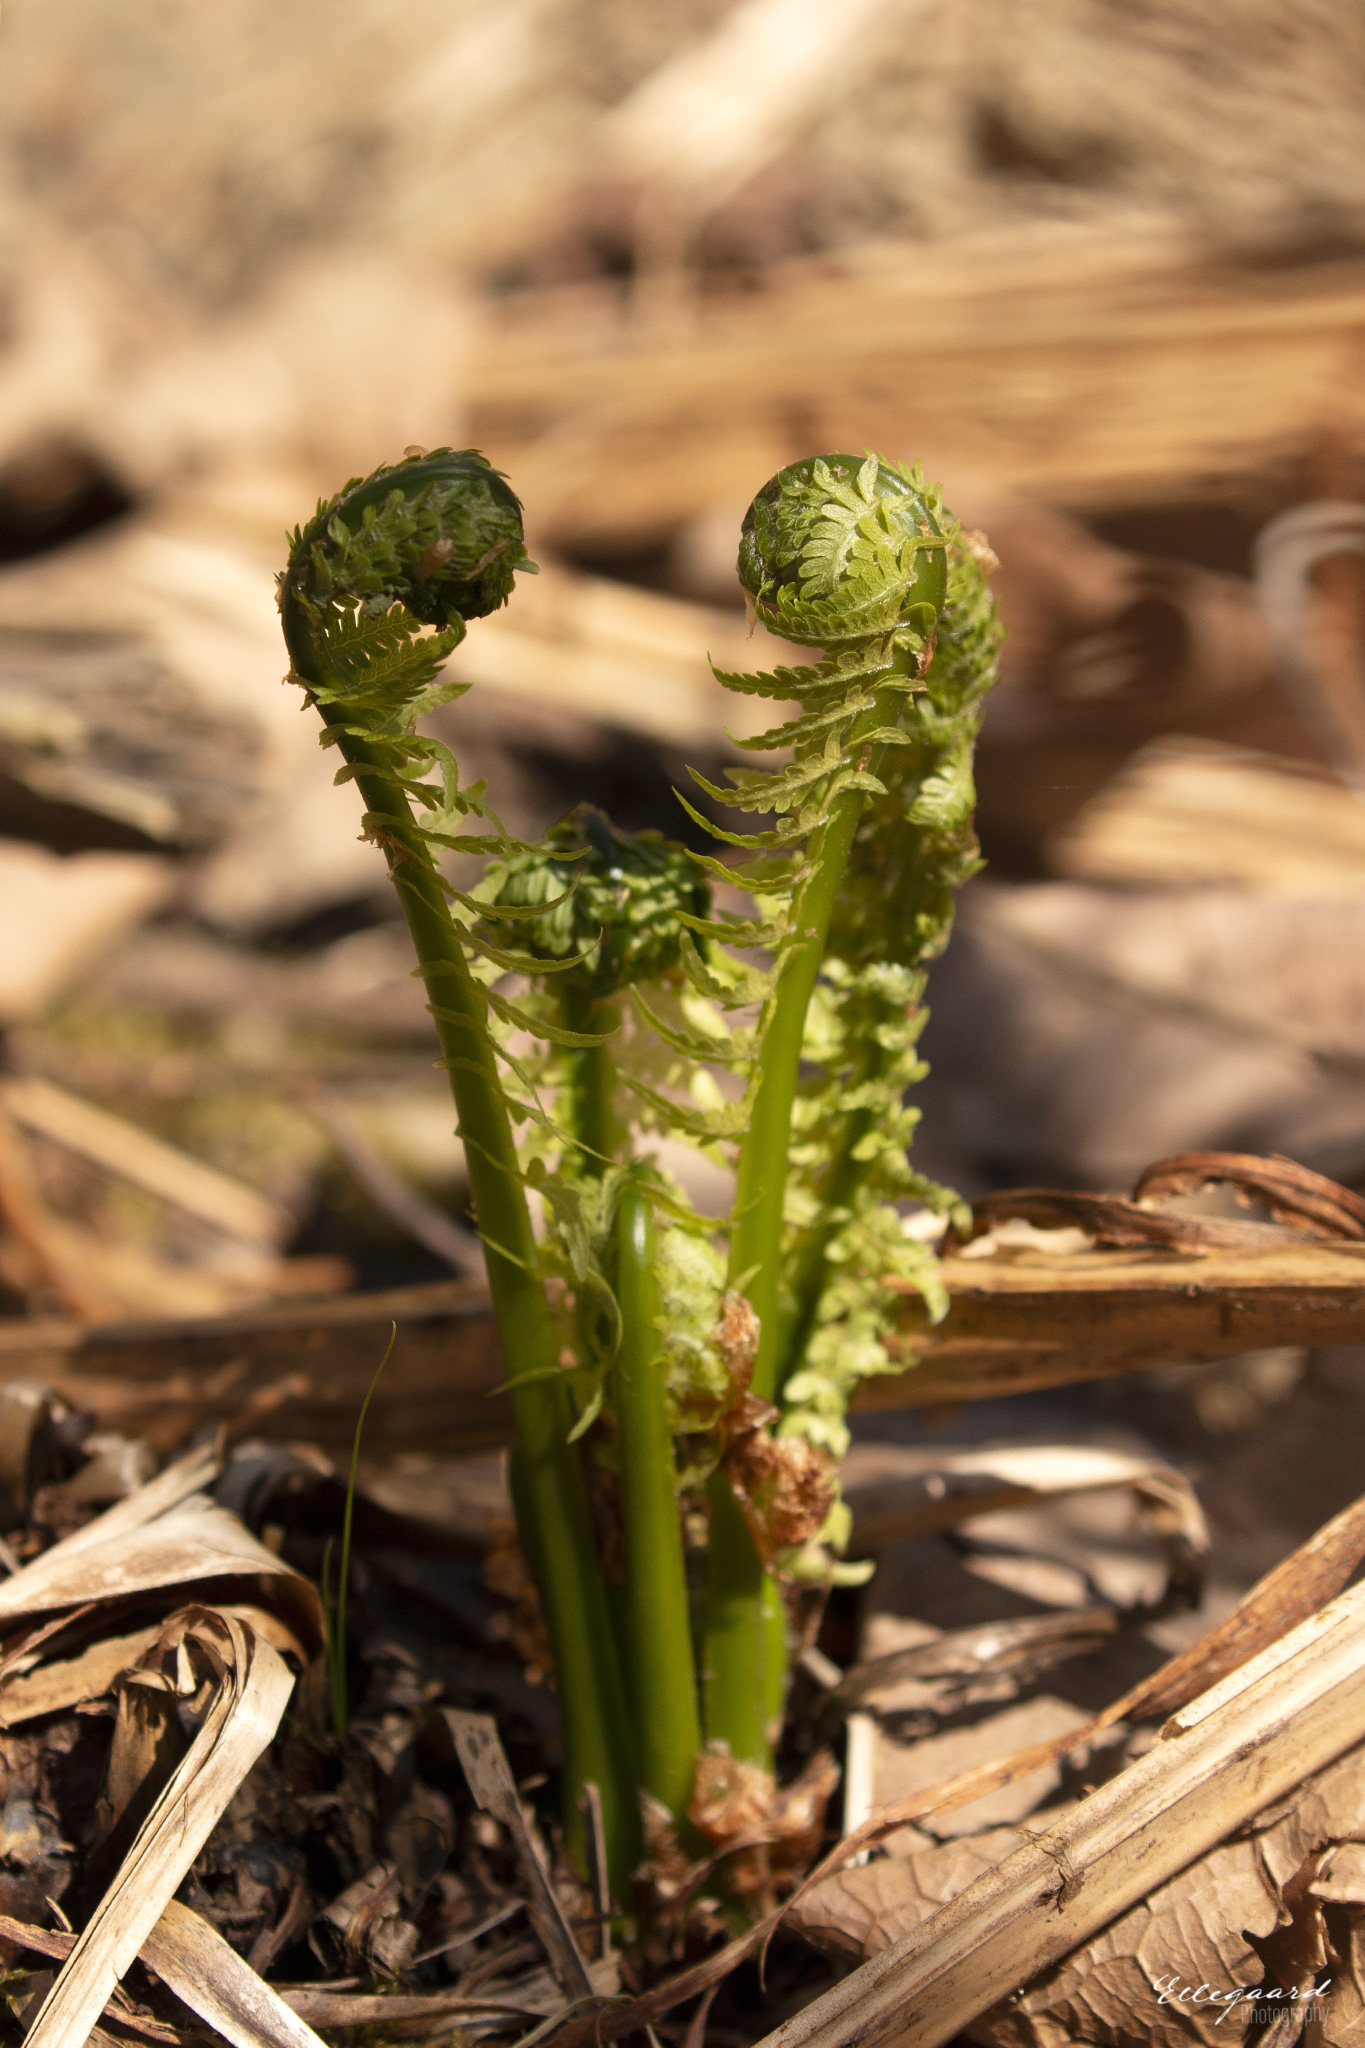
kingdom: Plantae
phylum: Tracheophyta
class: Polypodiopsida
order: Polypodiales
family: Onocleaceae
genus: Matteuccia
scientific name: Matteuccia struthiopteris
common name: Ostrich fern
